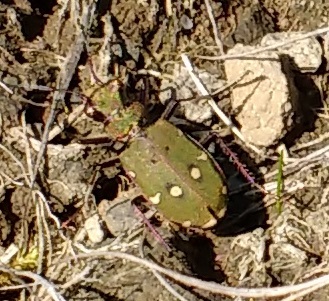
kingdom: Animalia
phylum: Arthropoda
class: Insecta
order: Coleoptera
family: Carabidae
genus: Cicindela
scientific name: Cicindela campestris
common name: Common tiger beetle
